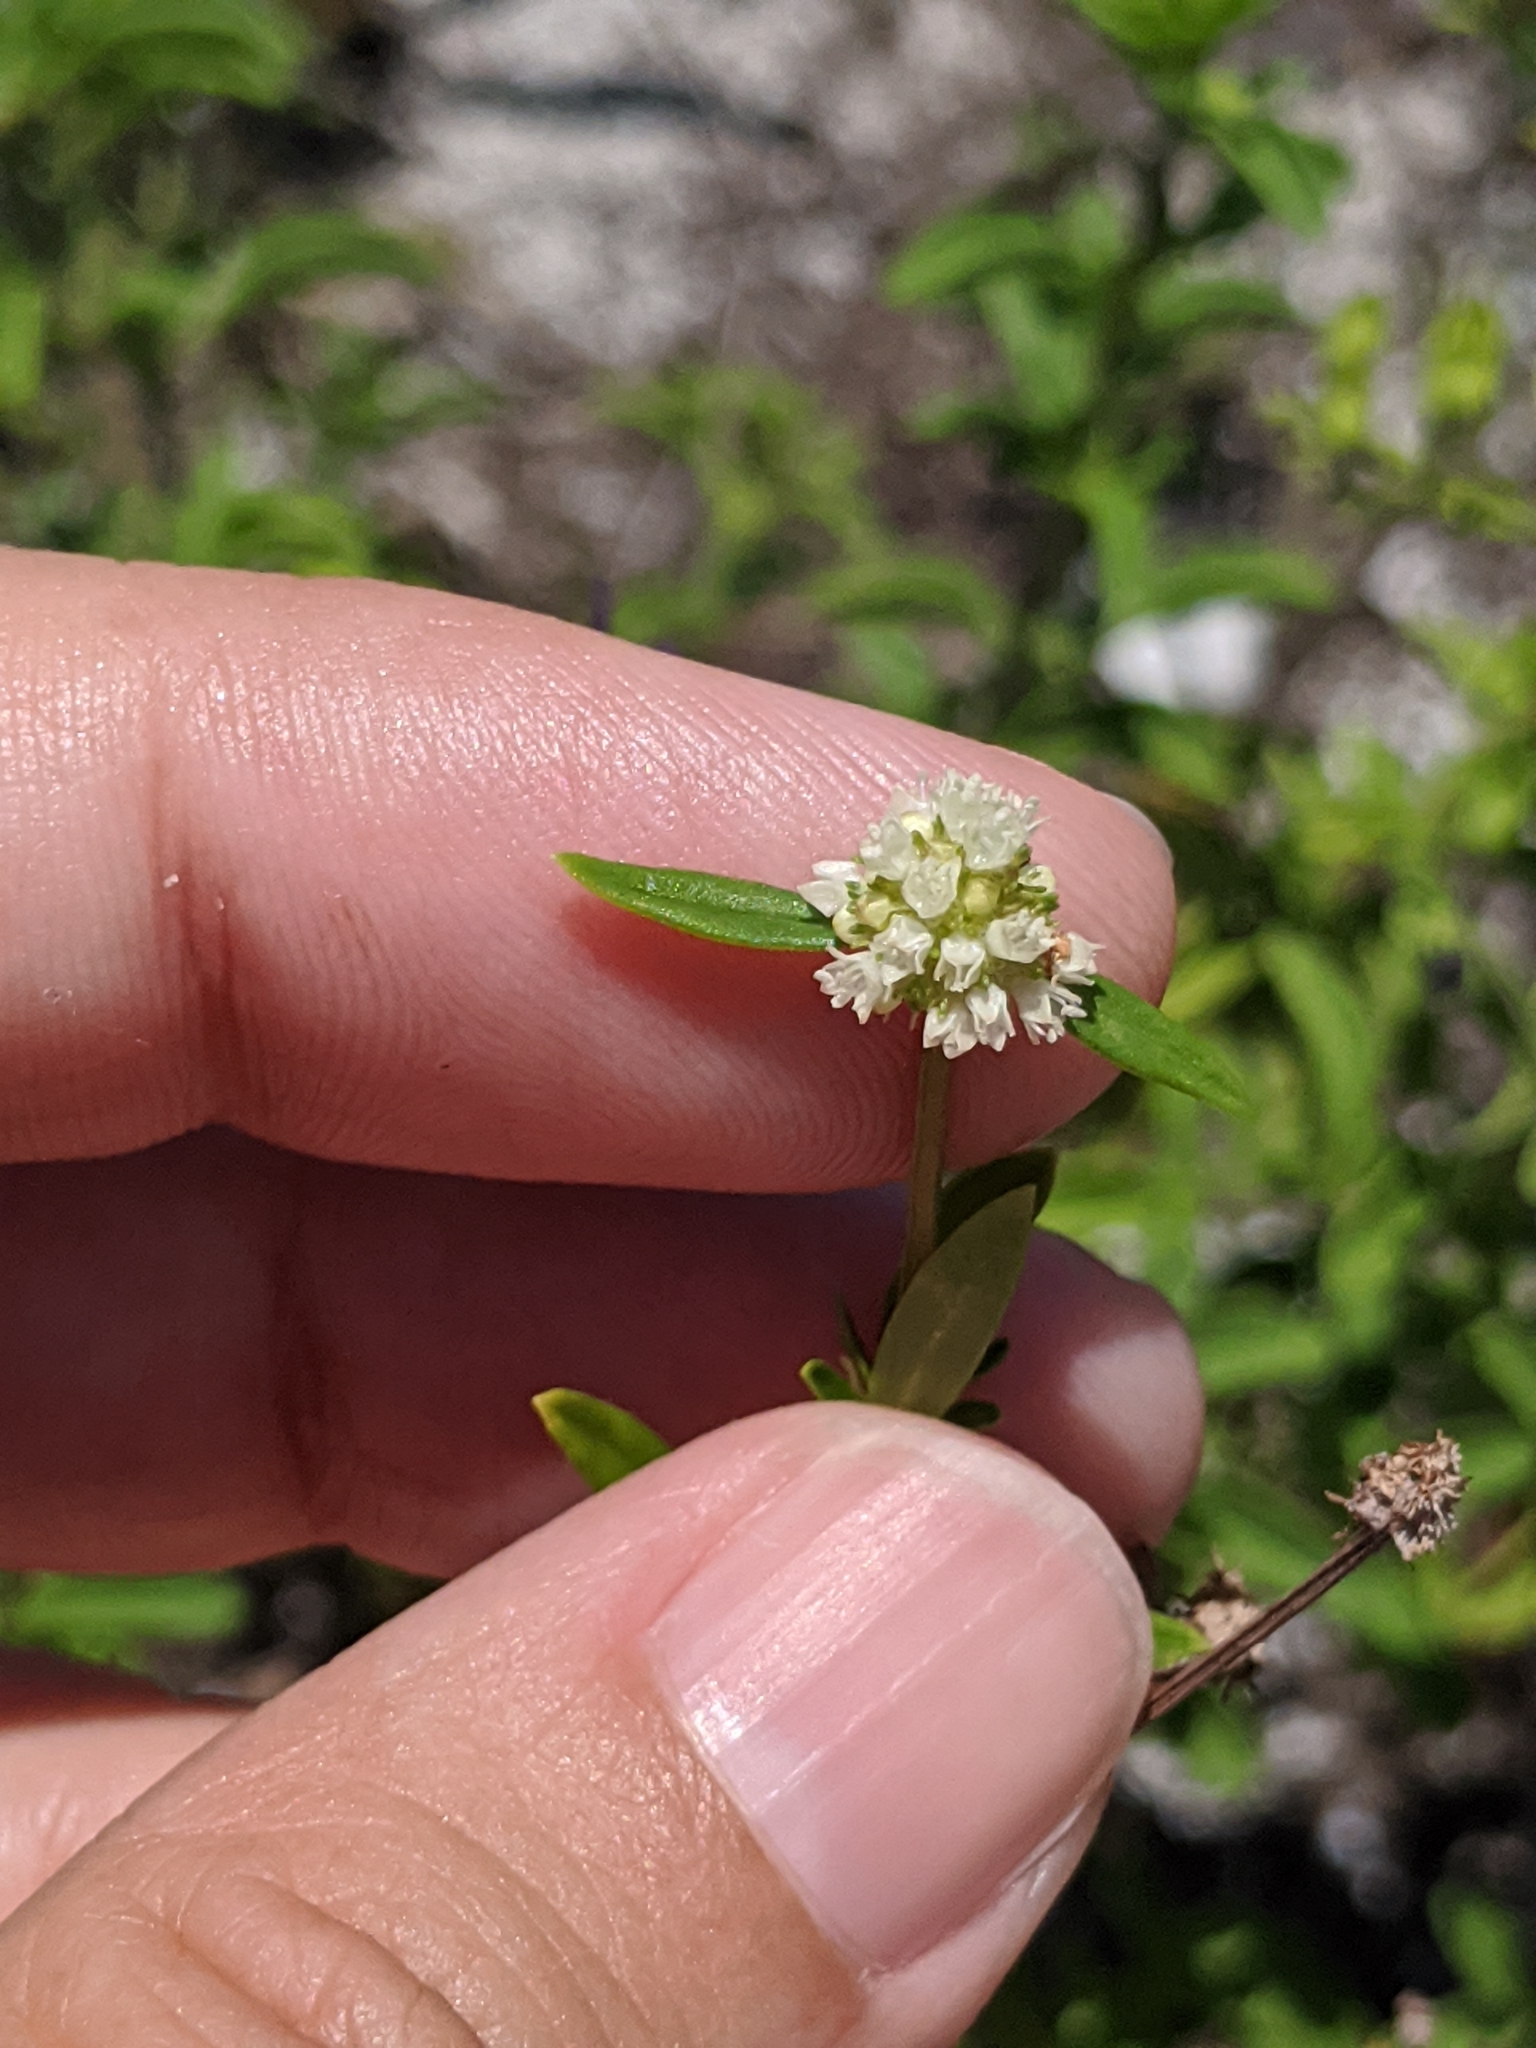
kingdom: Plantae
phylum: Tracheophyta
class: Magnoliopsida
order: Gentianales
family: Rubiaceae
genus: Spermacoce
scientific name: Spermacoce verticillata
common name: Shrubby false buttonweed
